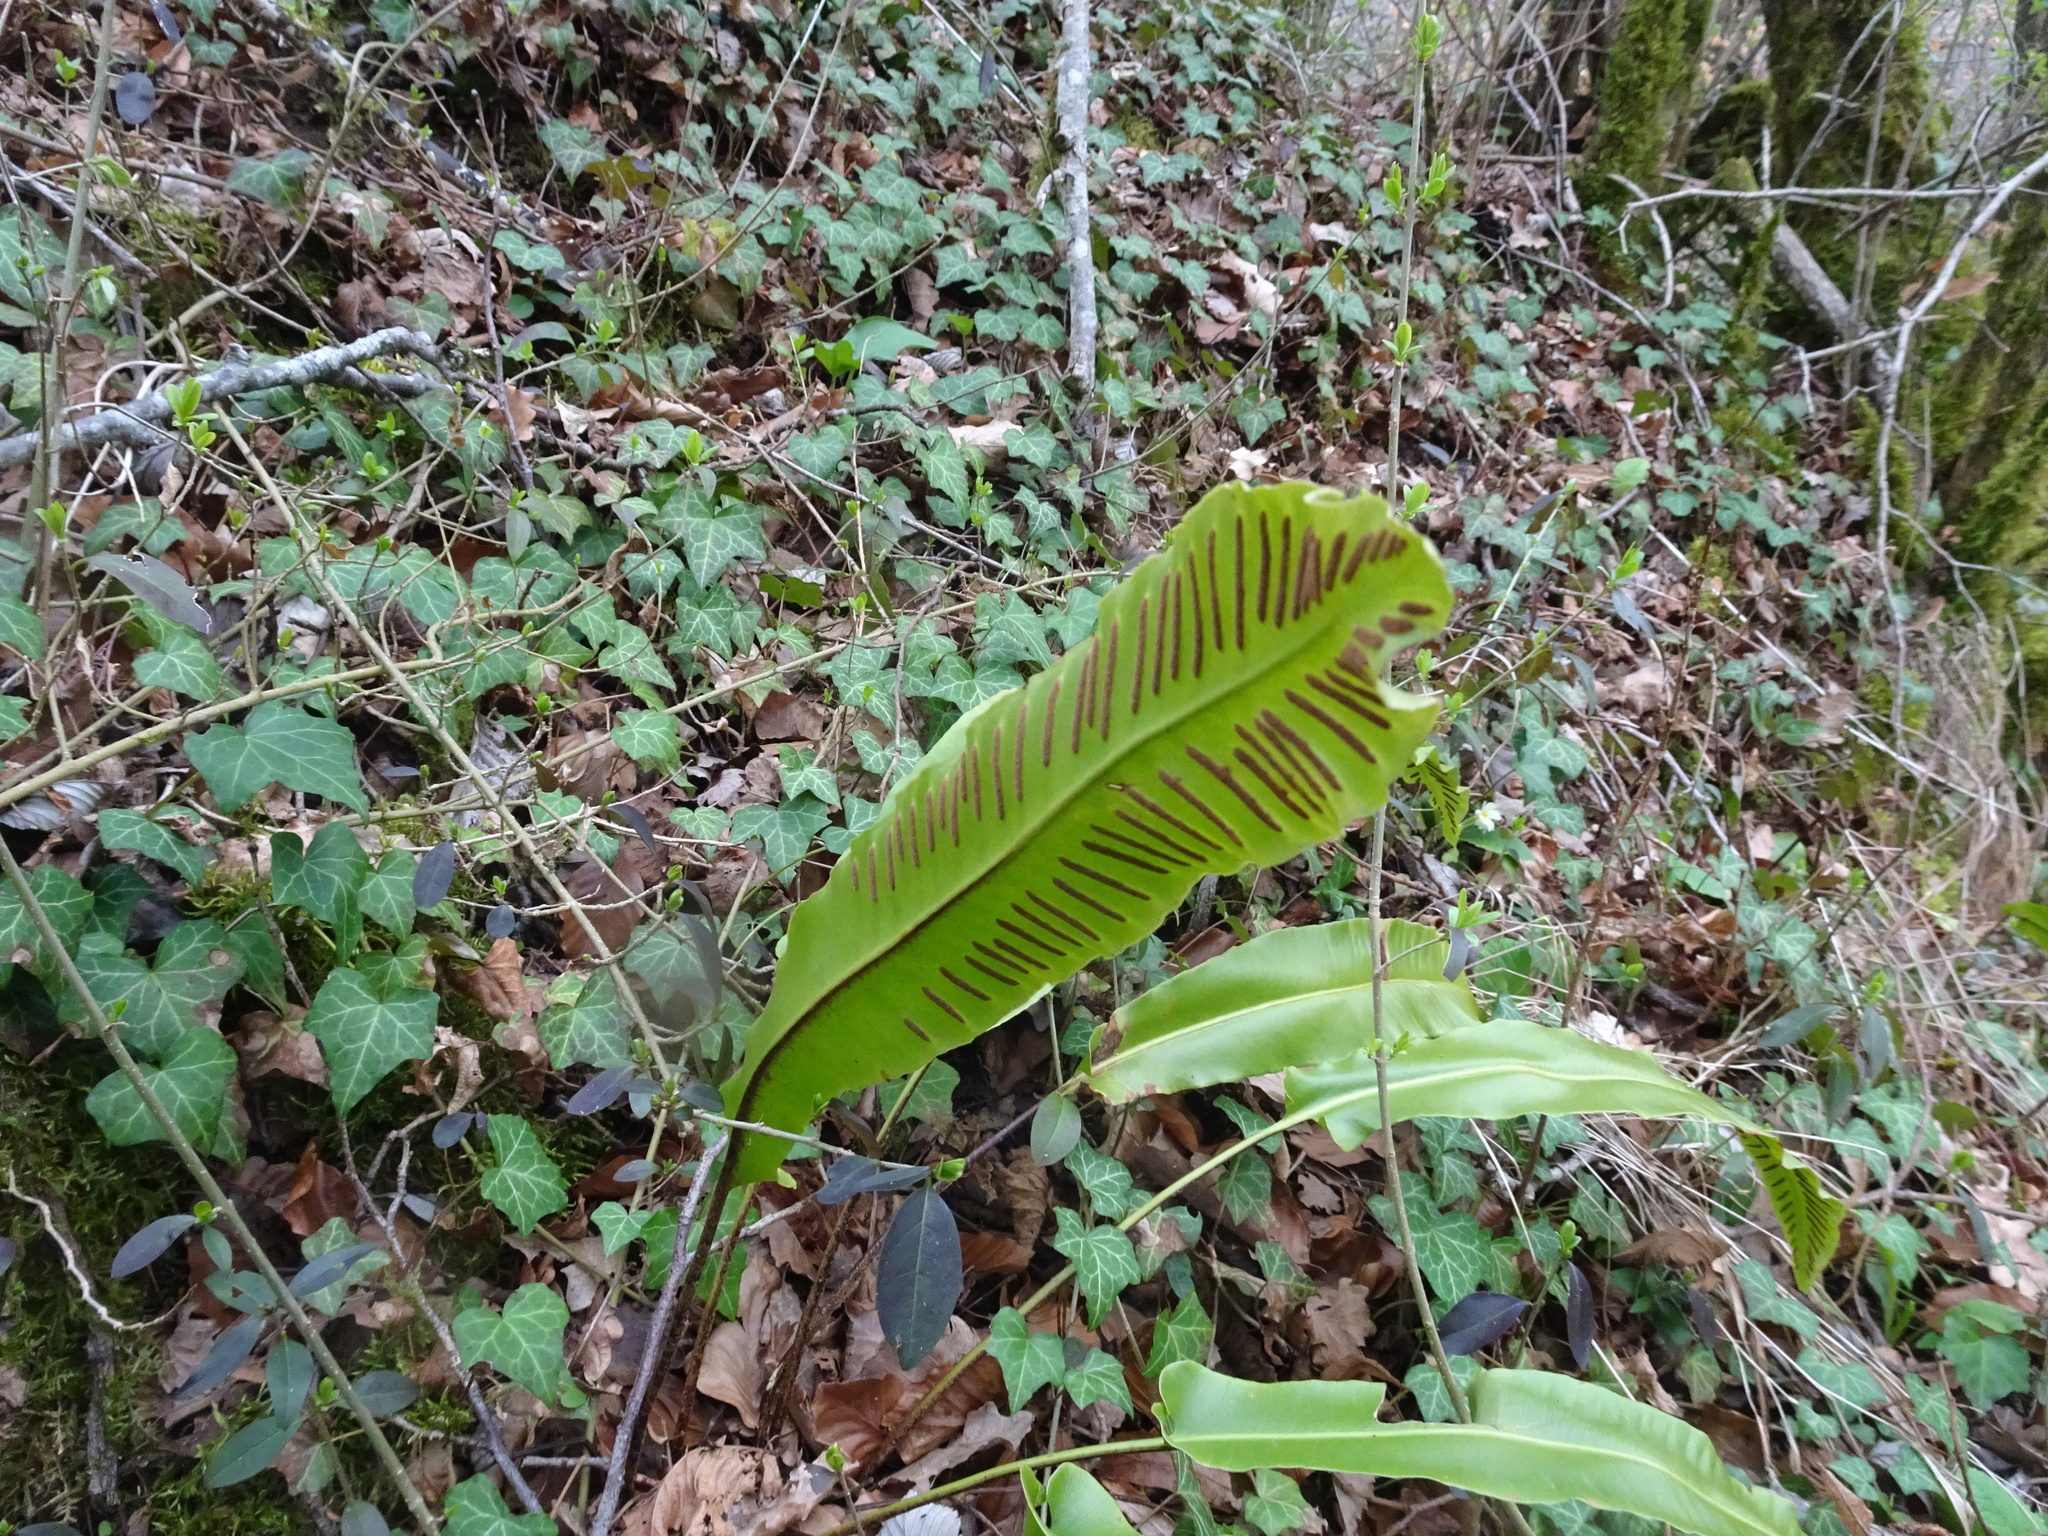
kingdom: Plantae
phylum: Tracheophyta
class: Polypodiopsida
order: Polypodiales
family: Aspleniaceae
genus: Asplenium
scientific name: Asplenium scolopendrium
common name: Hart's-tongue fern
